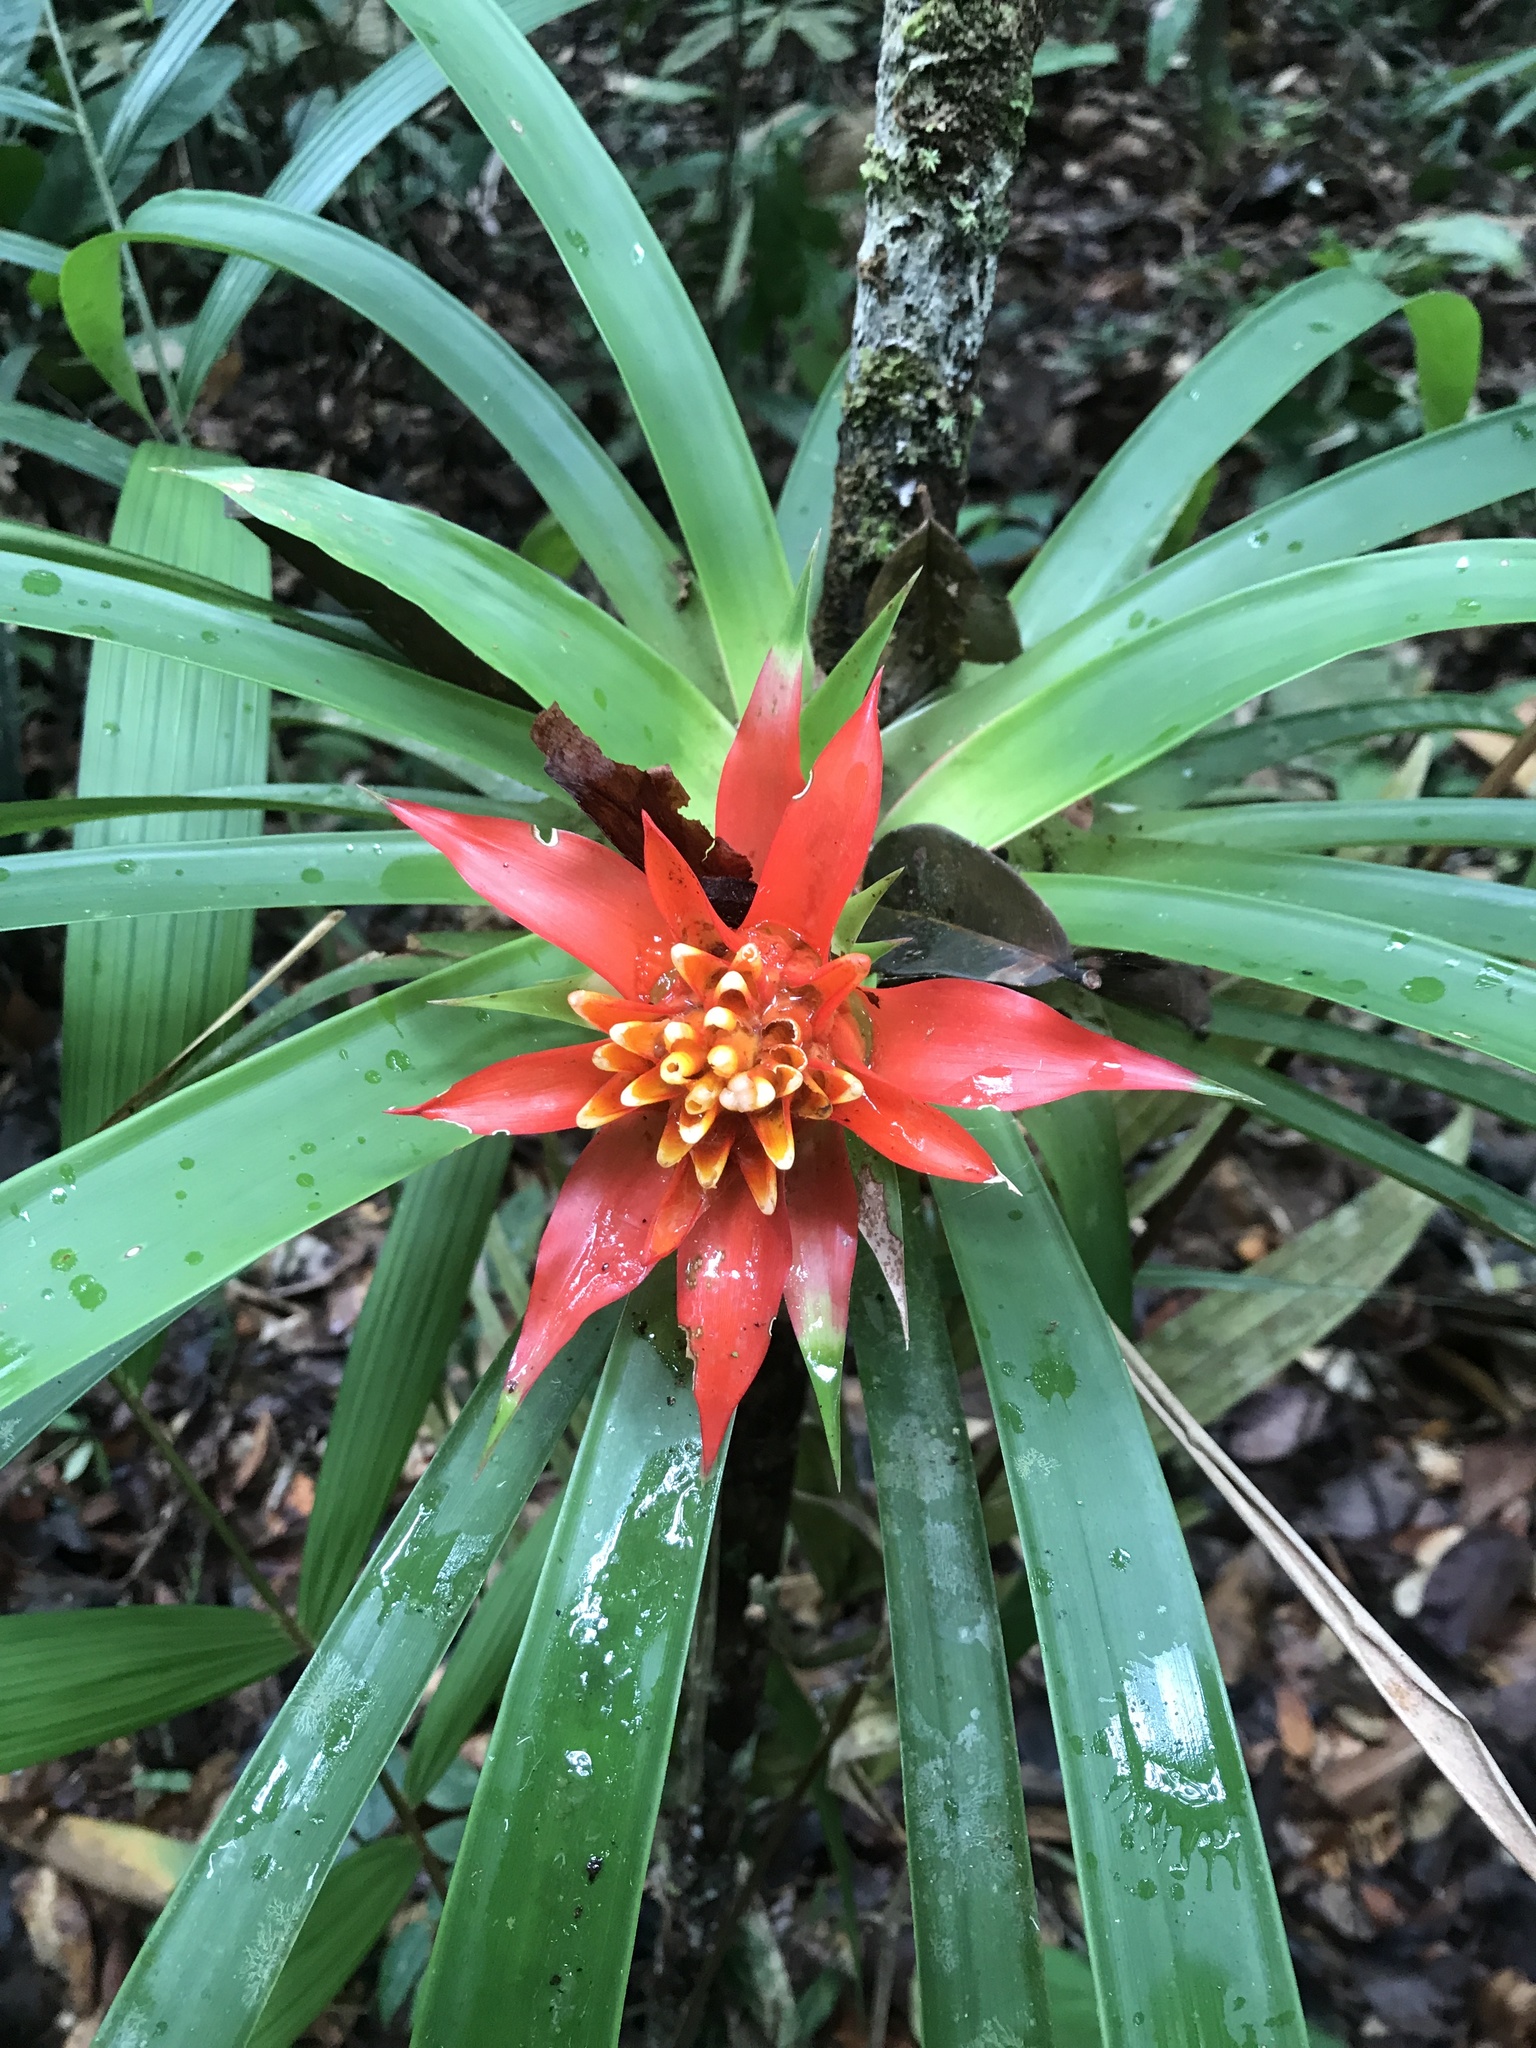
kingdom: Plantae
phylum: Tracheophyta
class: Liliopsida
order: Poales
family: Bromeliaceae
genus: Guzmania
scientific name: Guzmania lingulata
